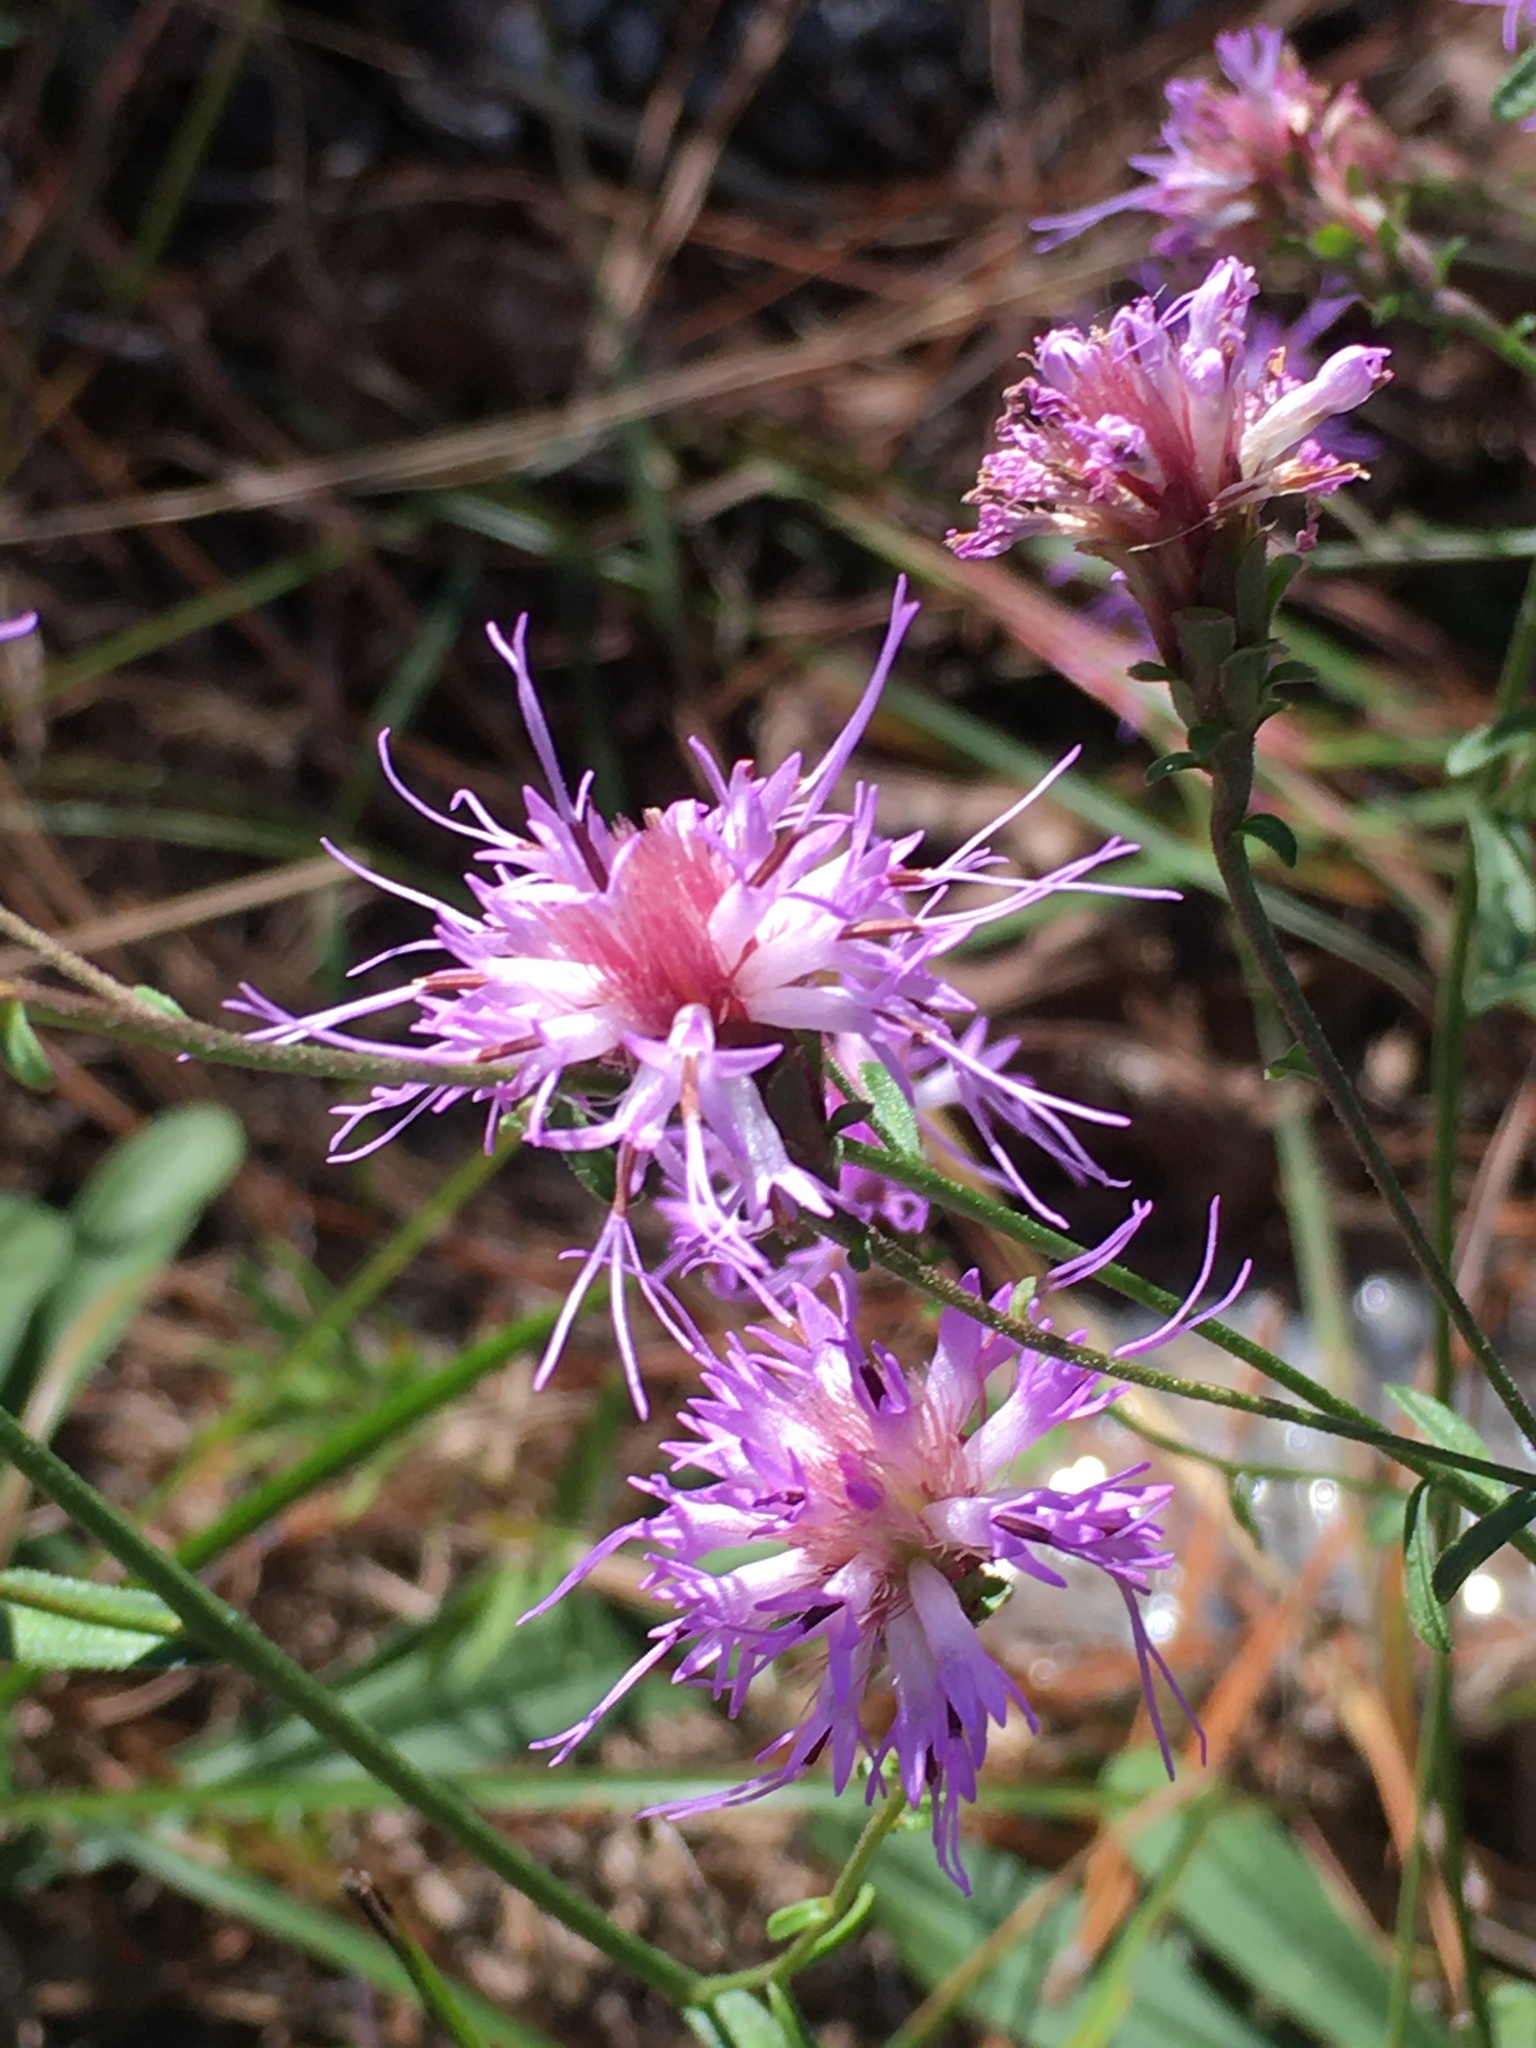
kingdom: Plantae
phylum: Tracheophyta
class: Magnoliopsida
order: Asterales
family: Asteraceae
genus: Carphephorus
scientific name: Carphephorus bellidifolius
